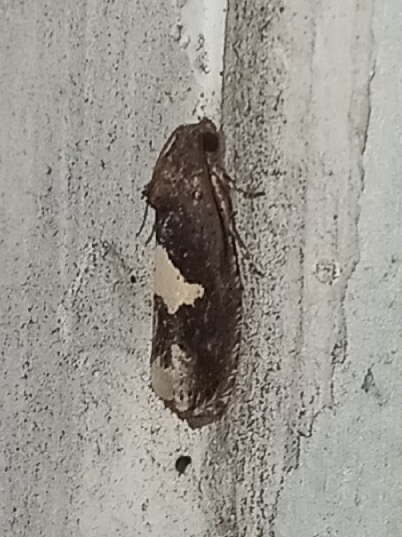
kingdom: Animalia
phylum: Arthropoda
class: Insecta
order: Lepidoptera
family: Tortricidae
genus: Epiblema
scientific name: Epiblema otiosana
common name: Bidens borer moth
